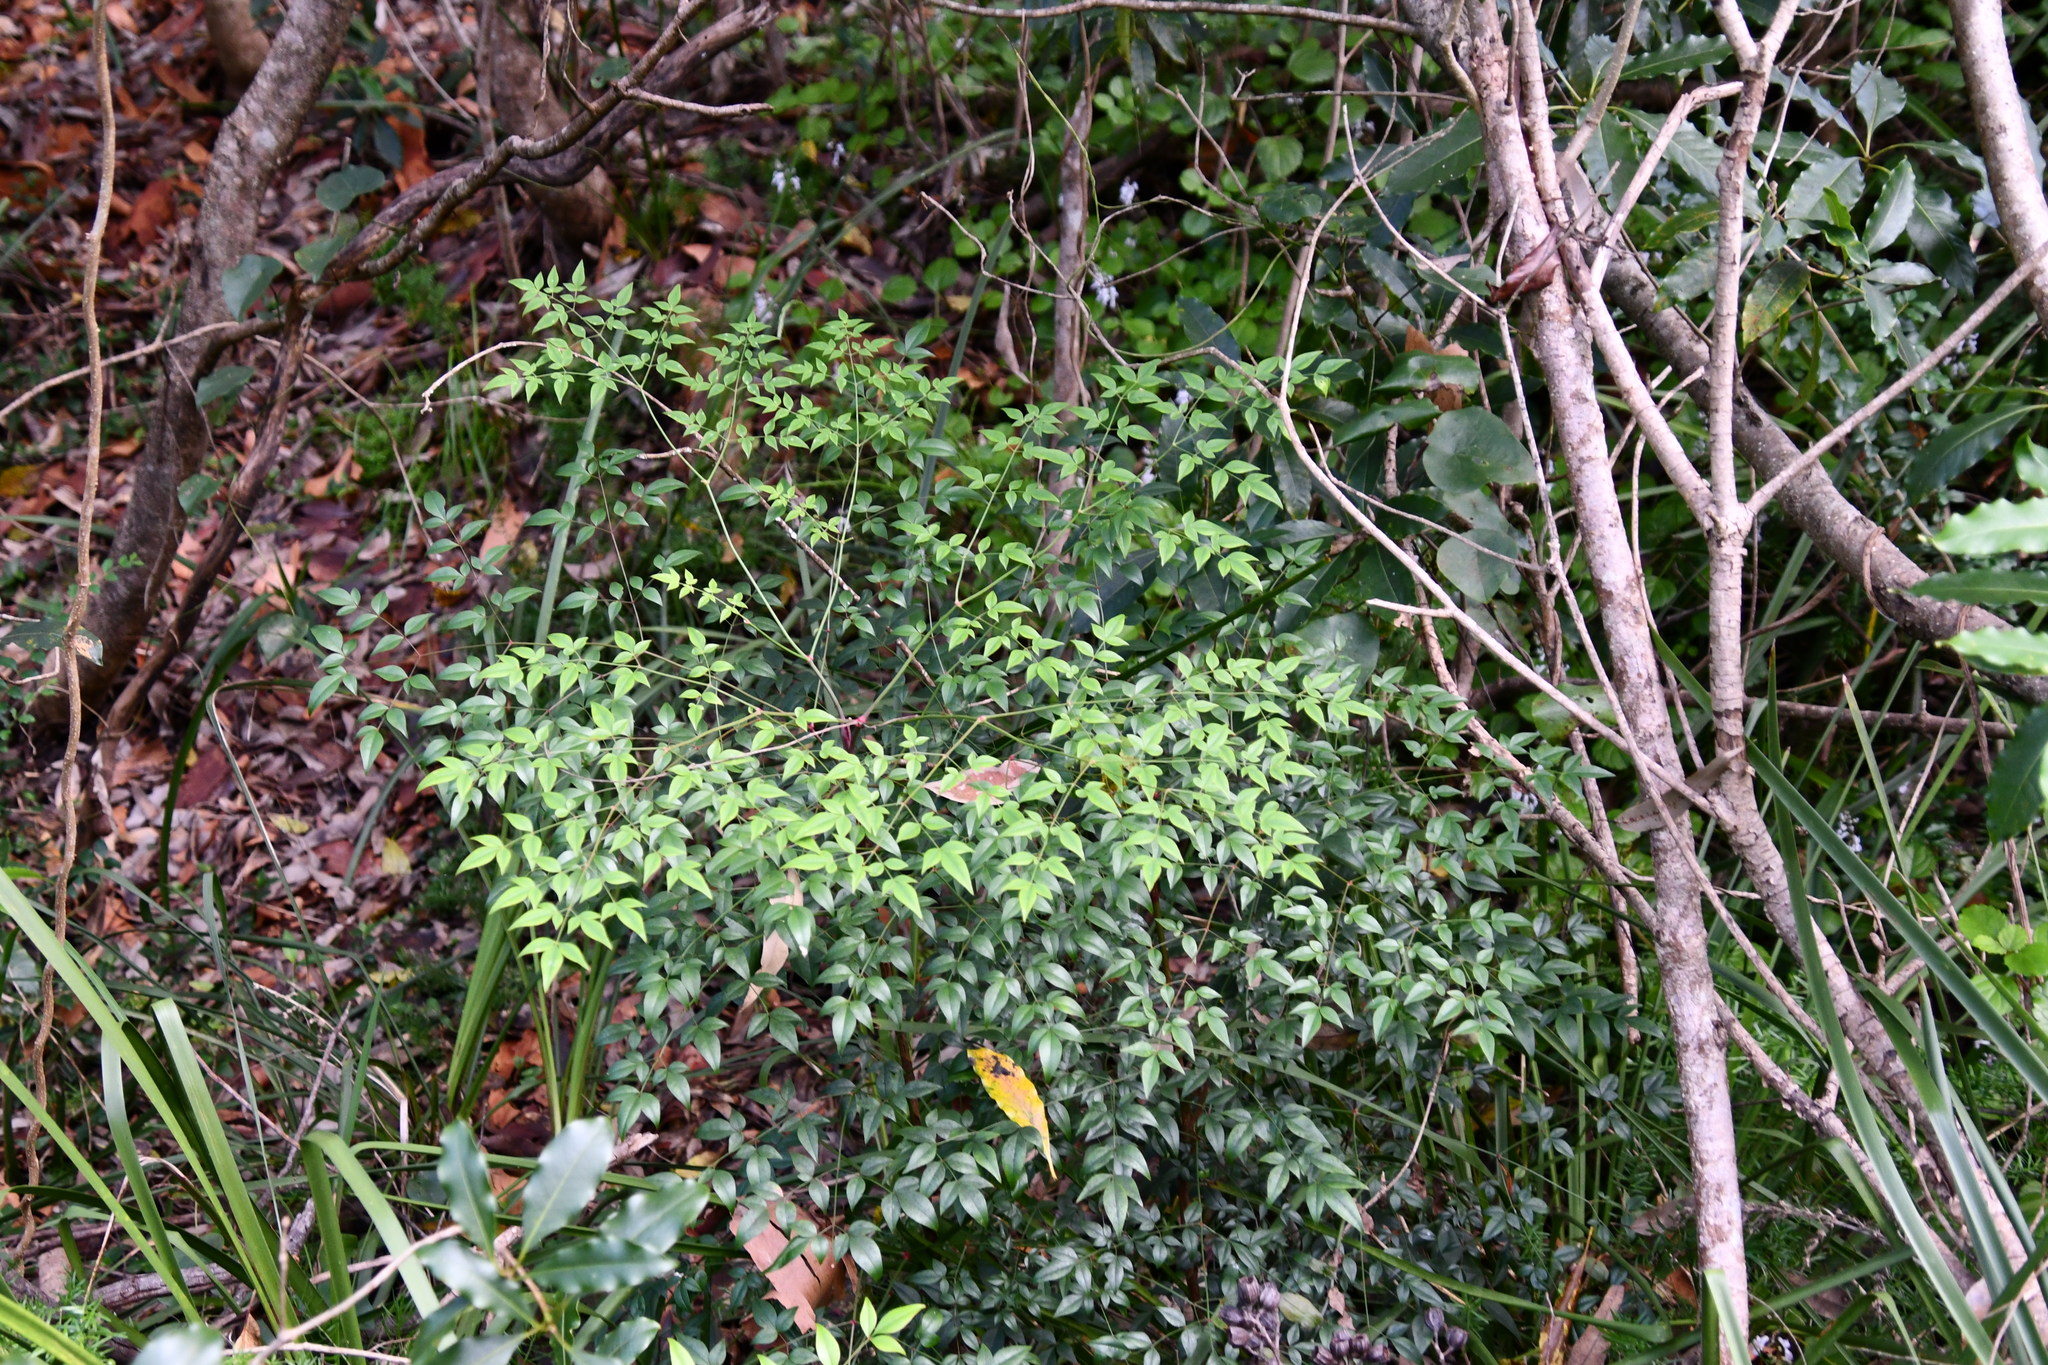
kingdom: Plantae
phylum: Tracheophyta
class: Magnoliopsida
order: Ranunculales
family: Berberidaceae
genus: Nandina
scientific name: Nandina domestica
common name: Sacred bamboo
